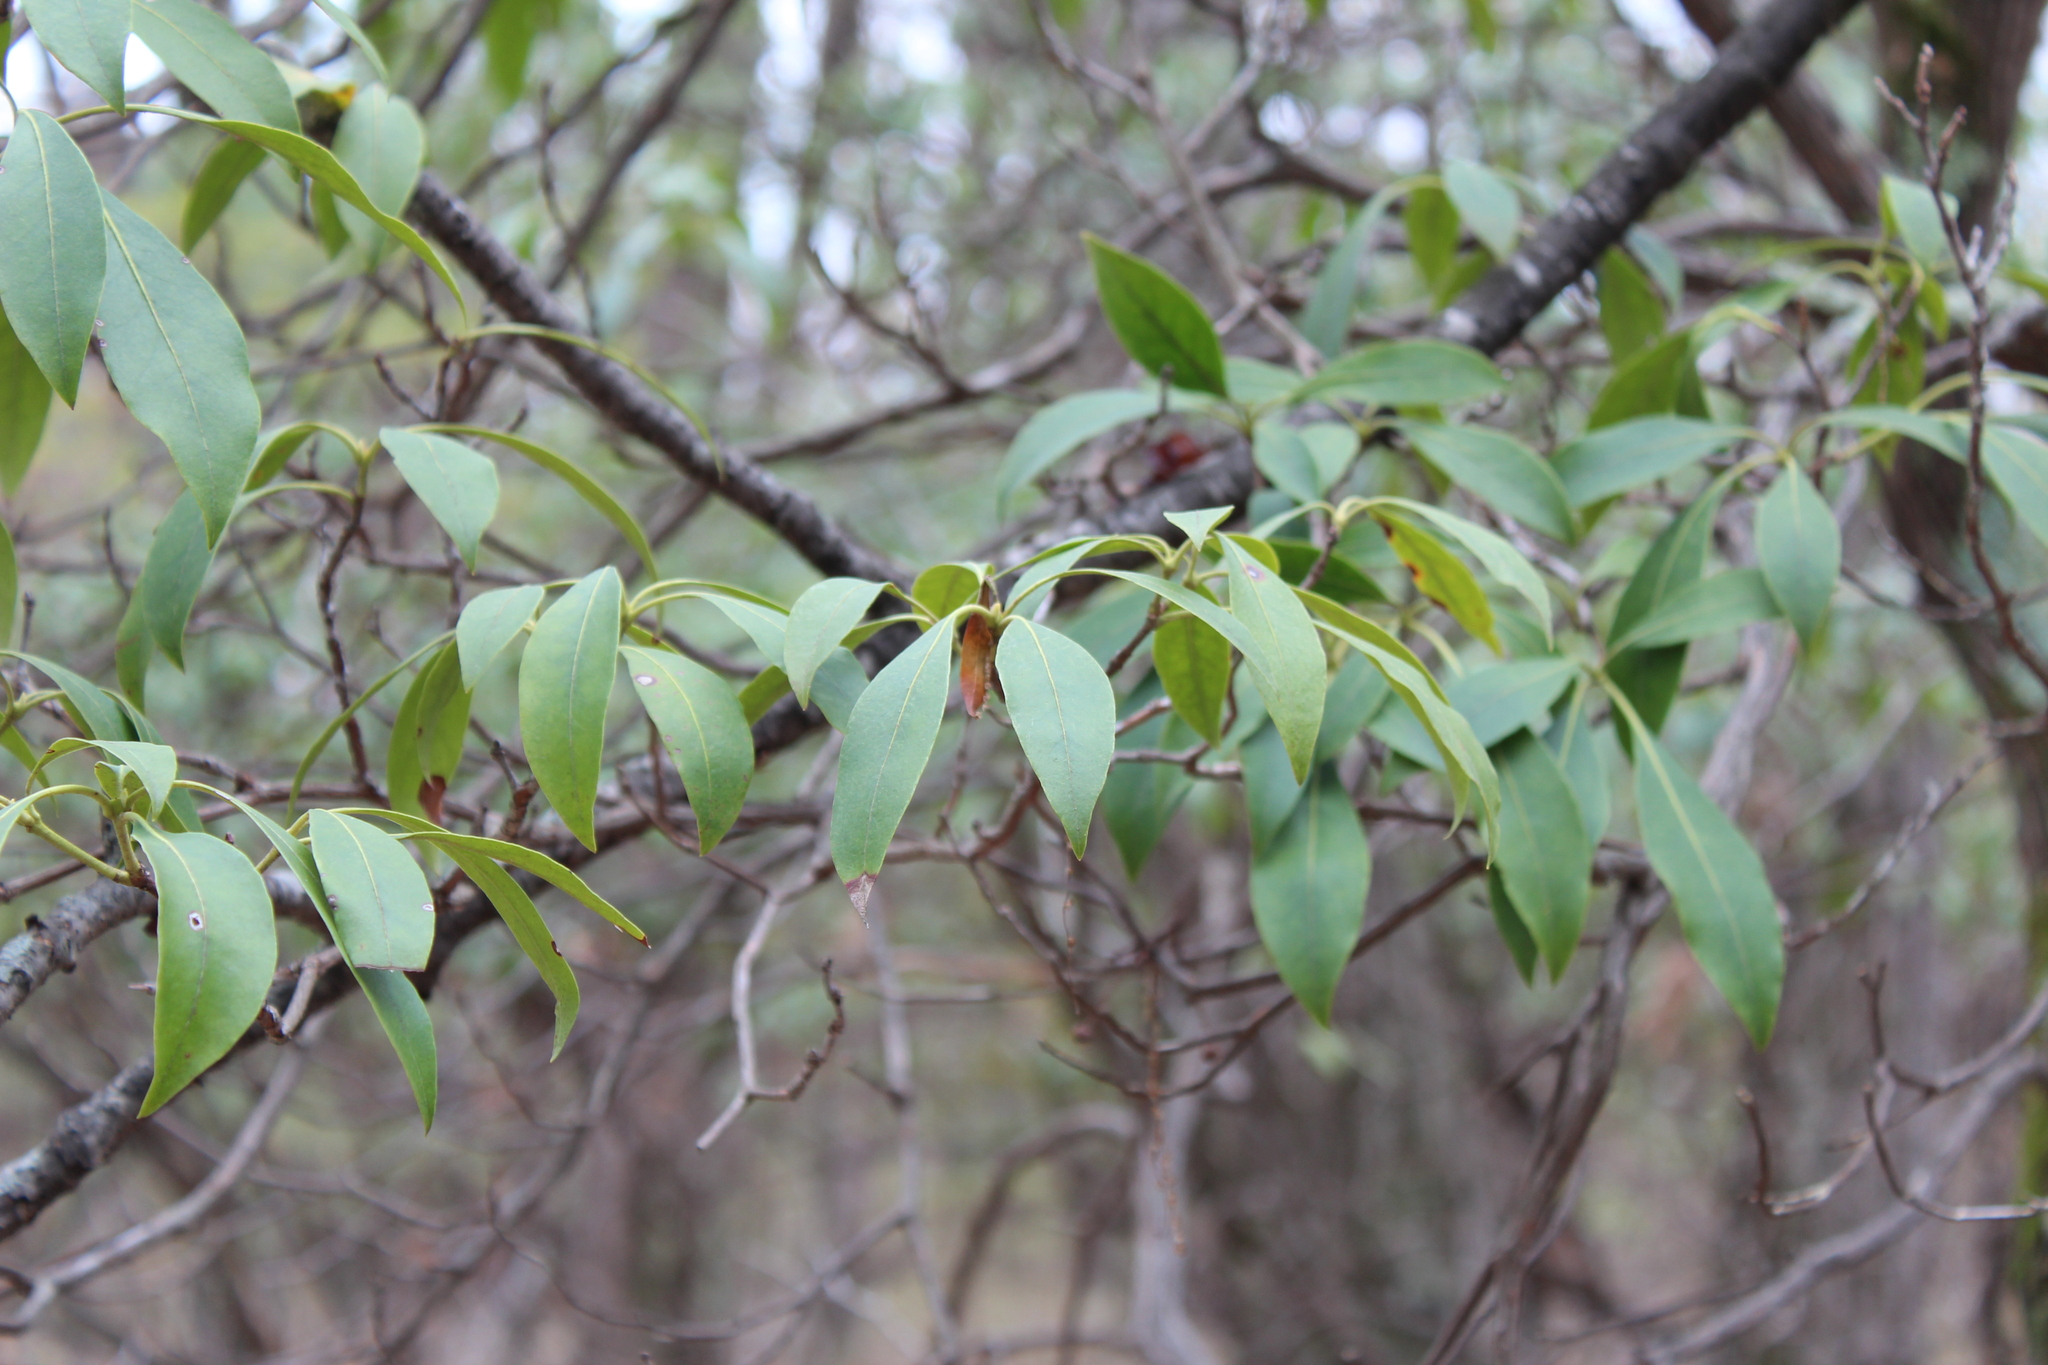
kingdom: Plantae
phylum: Tracheophyta
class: Magnoliopsida
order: Ericales
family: Ericaceae
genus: Kalmia
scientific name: Kalmia latifolia
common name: Mountain-laurel
